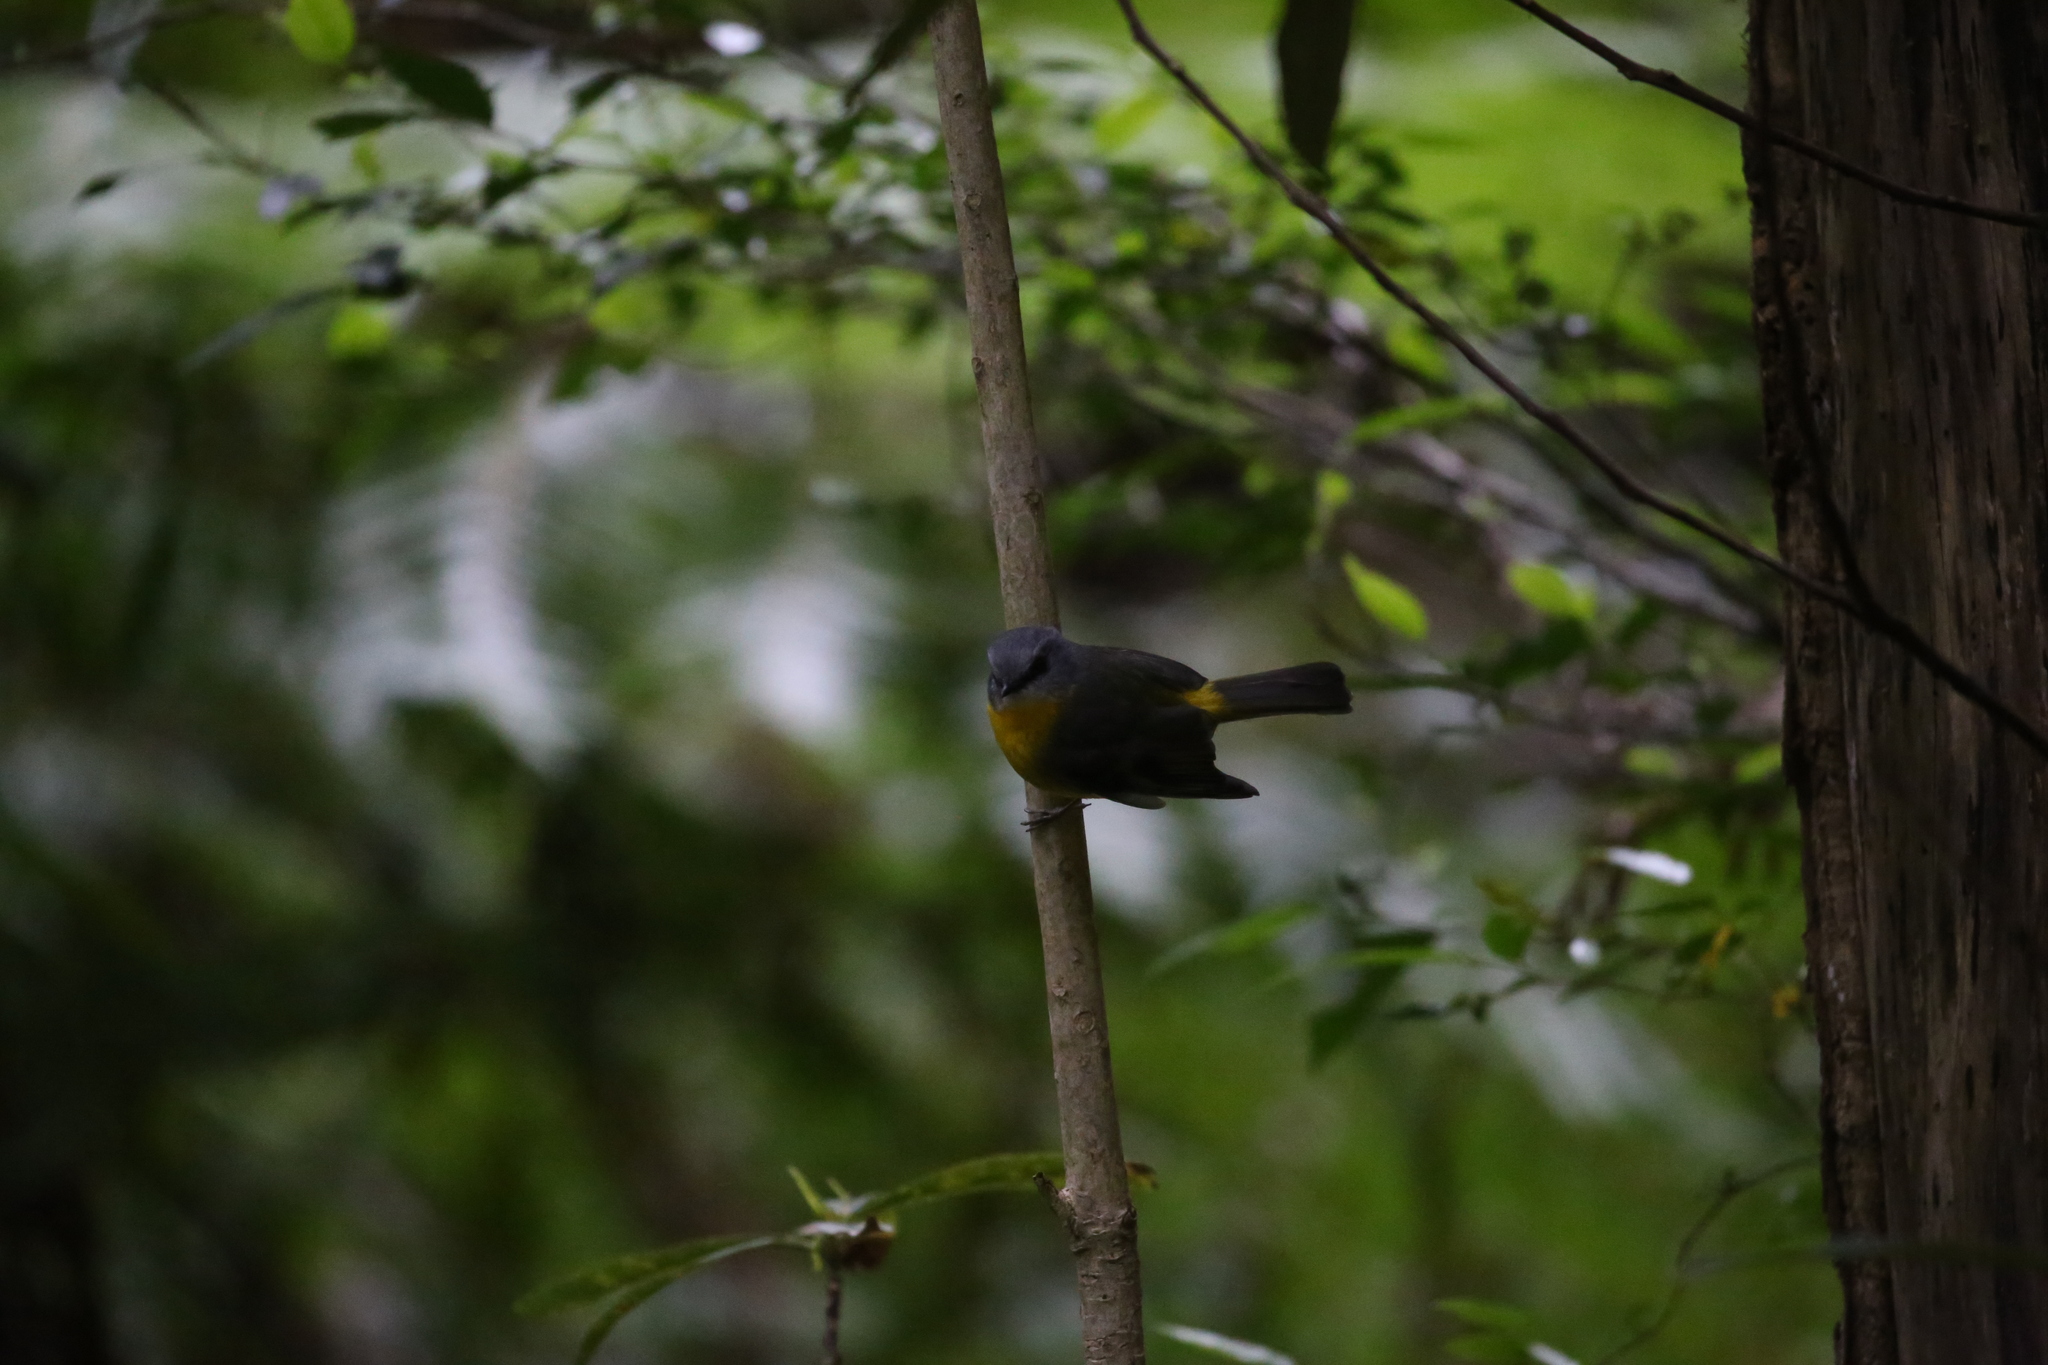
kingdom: Animalia
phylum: Chordata
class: Aves
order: Passeriformes
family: Petroicidae
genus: Eopsaltria
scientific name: Eopsaltria australis
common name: Eastern yellow robin
